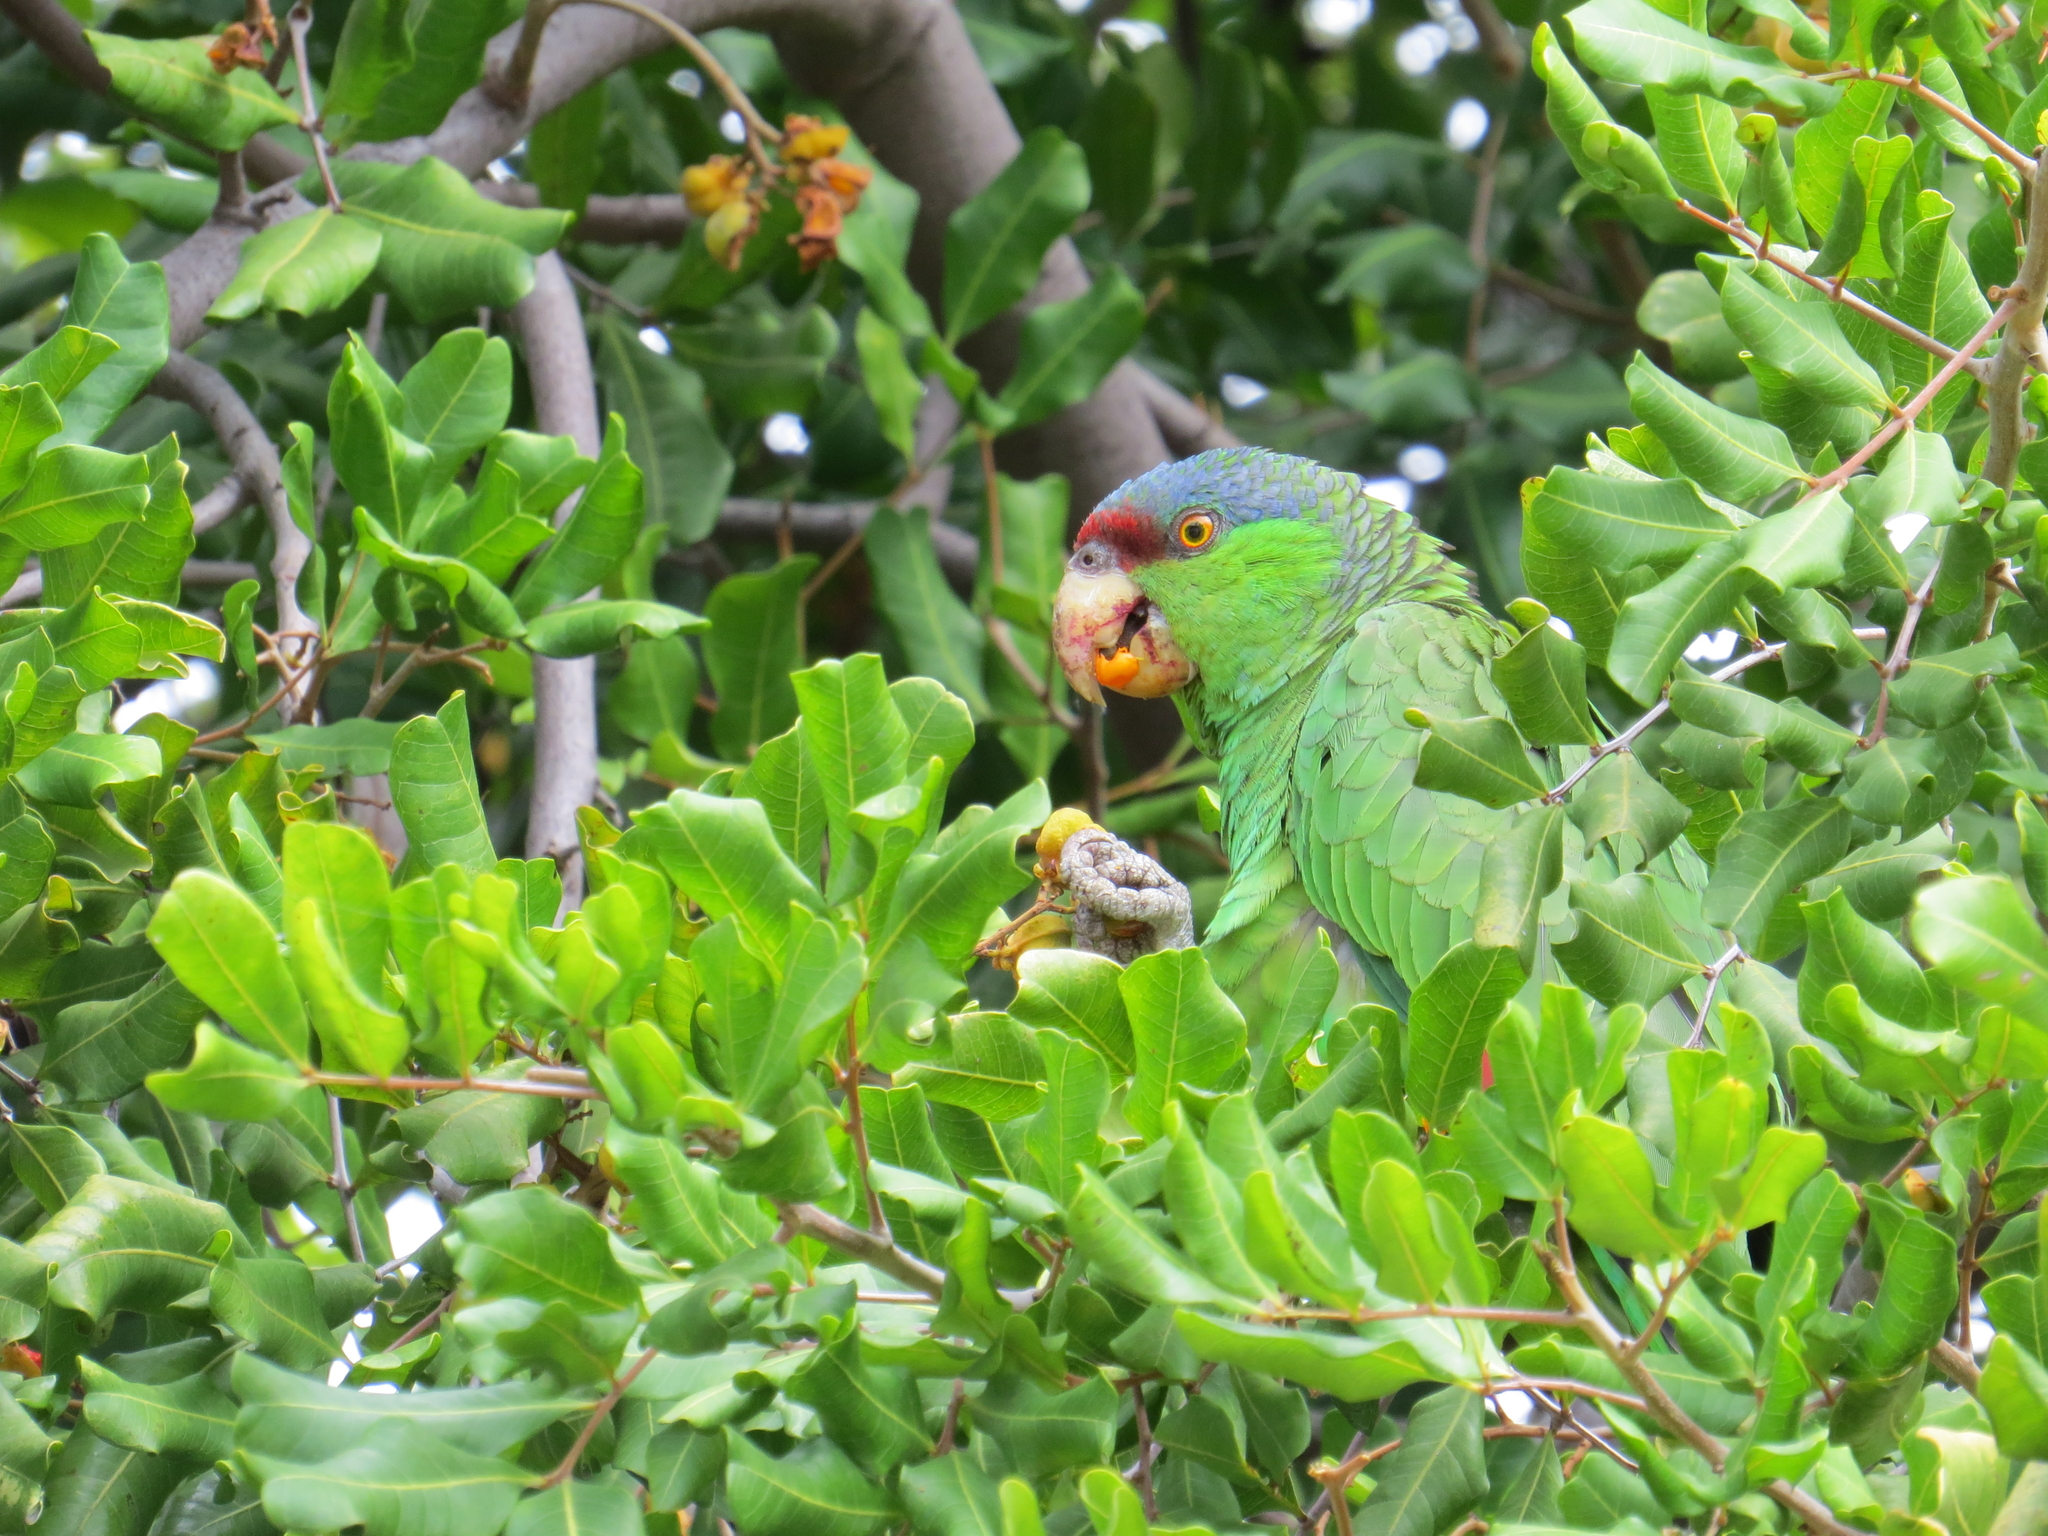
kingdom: Animalia
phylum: Chordata
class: Aves
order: Psittaciformes
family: Psittacidae
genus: Amazona
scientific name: Amazona finschi
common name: Lilac-crowned amazon
